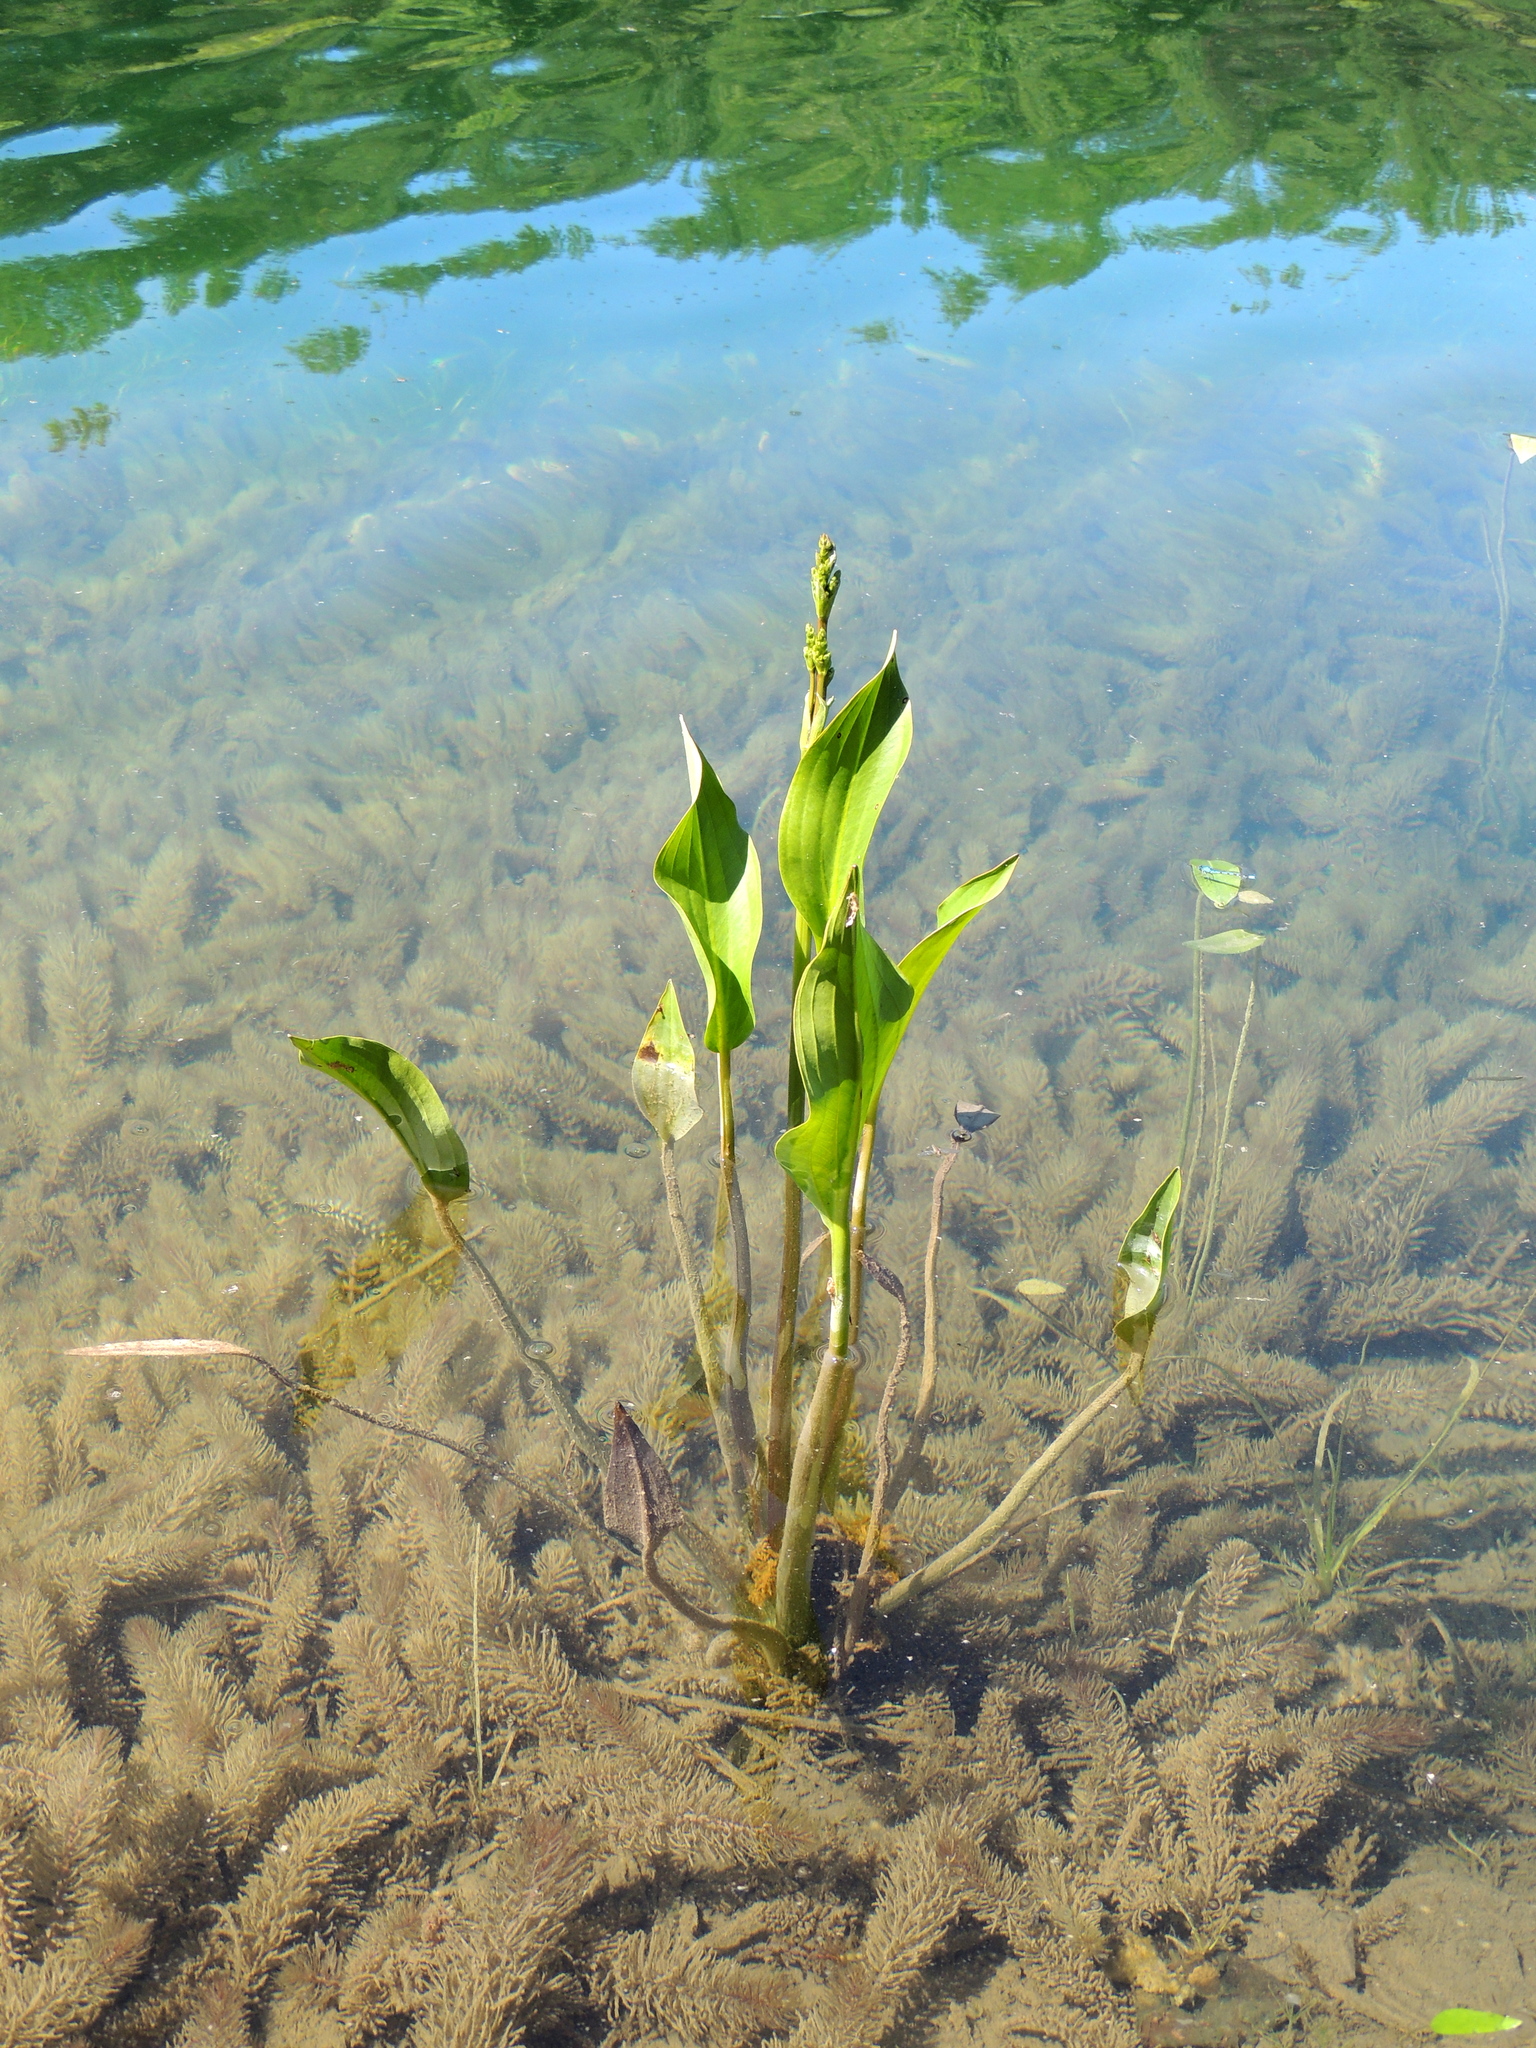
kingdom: Plantae
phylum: Tracheophyta
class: Liliopsida
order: Alismatales
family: Alismataceae
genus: Alisma
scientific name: Alisma plantago-aquatica
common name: Water-plantain
